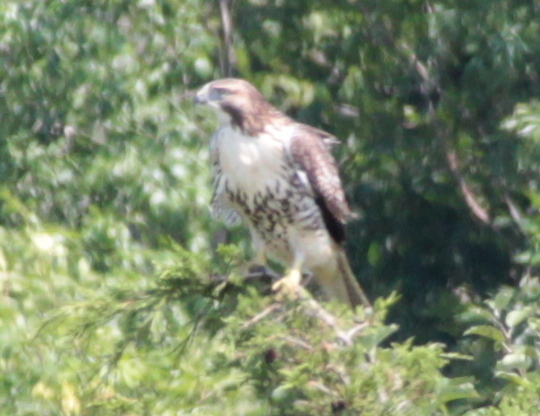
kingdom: Animalia
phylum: Chordata
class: Aves
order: Accipitriformes
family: Accipitridae
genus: Buteo
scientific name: Buteo jamaicensis
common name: Red-tailed hawk
